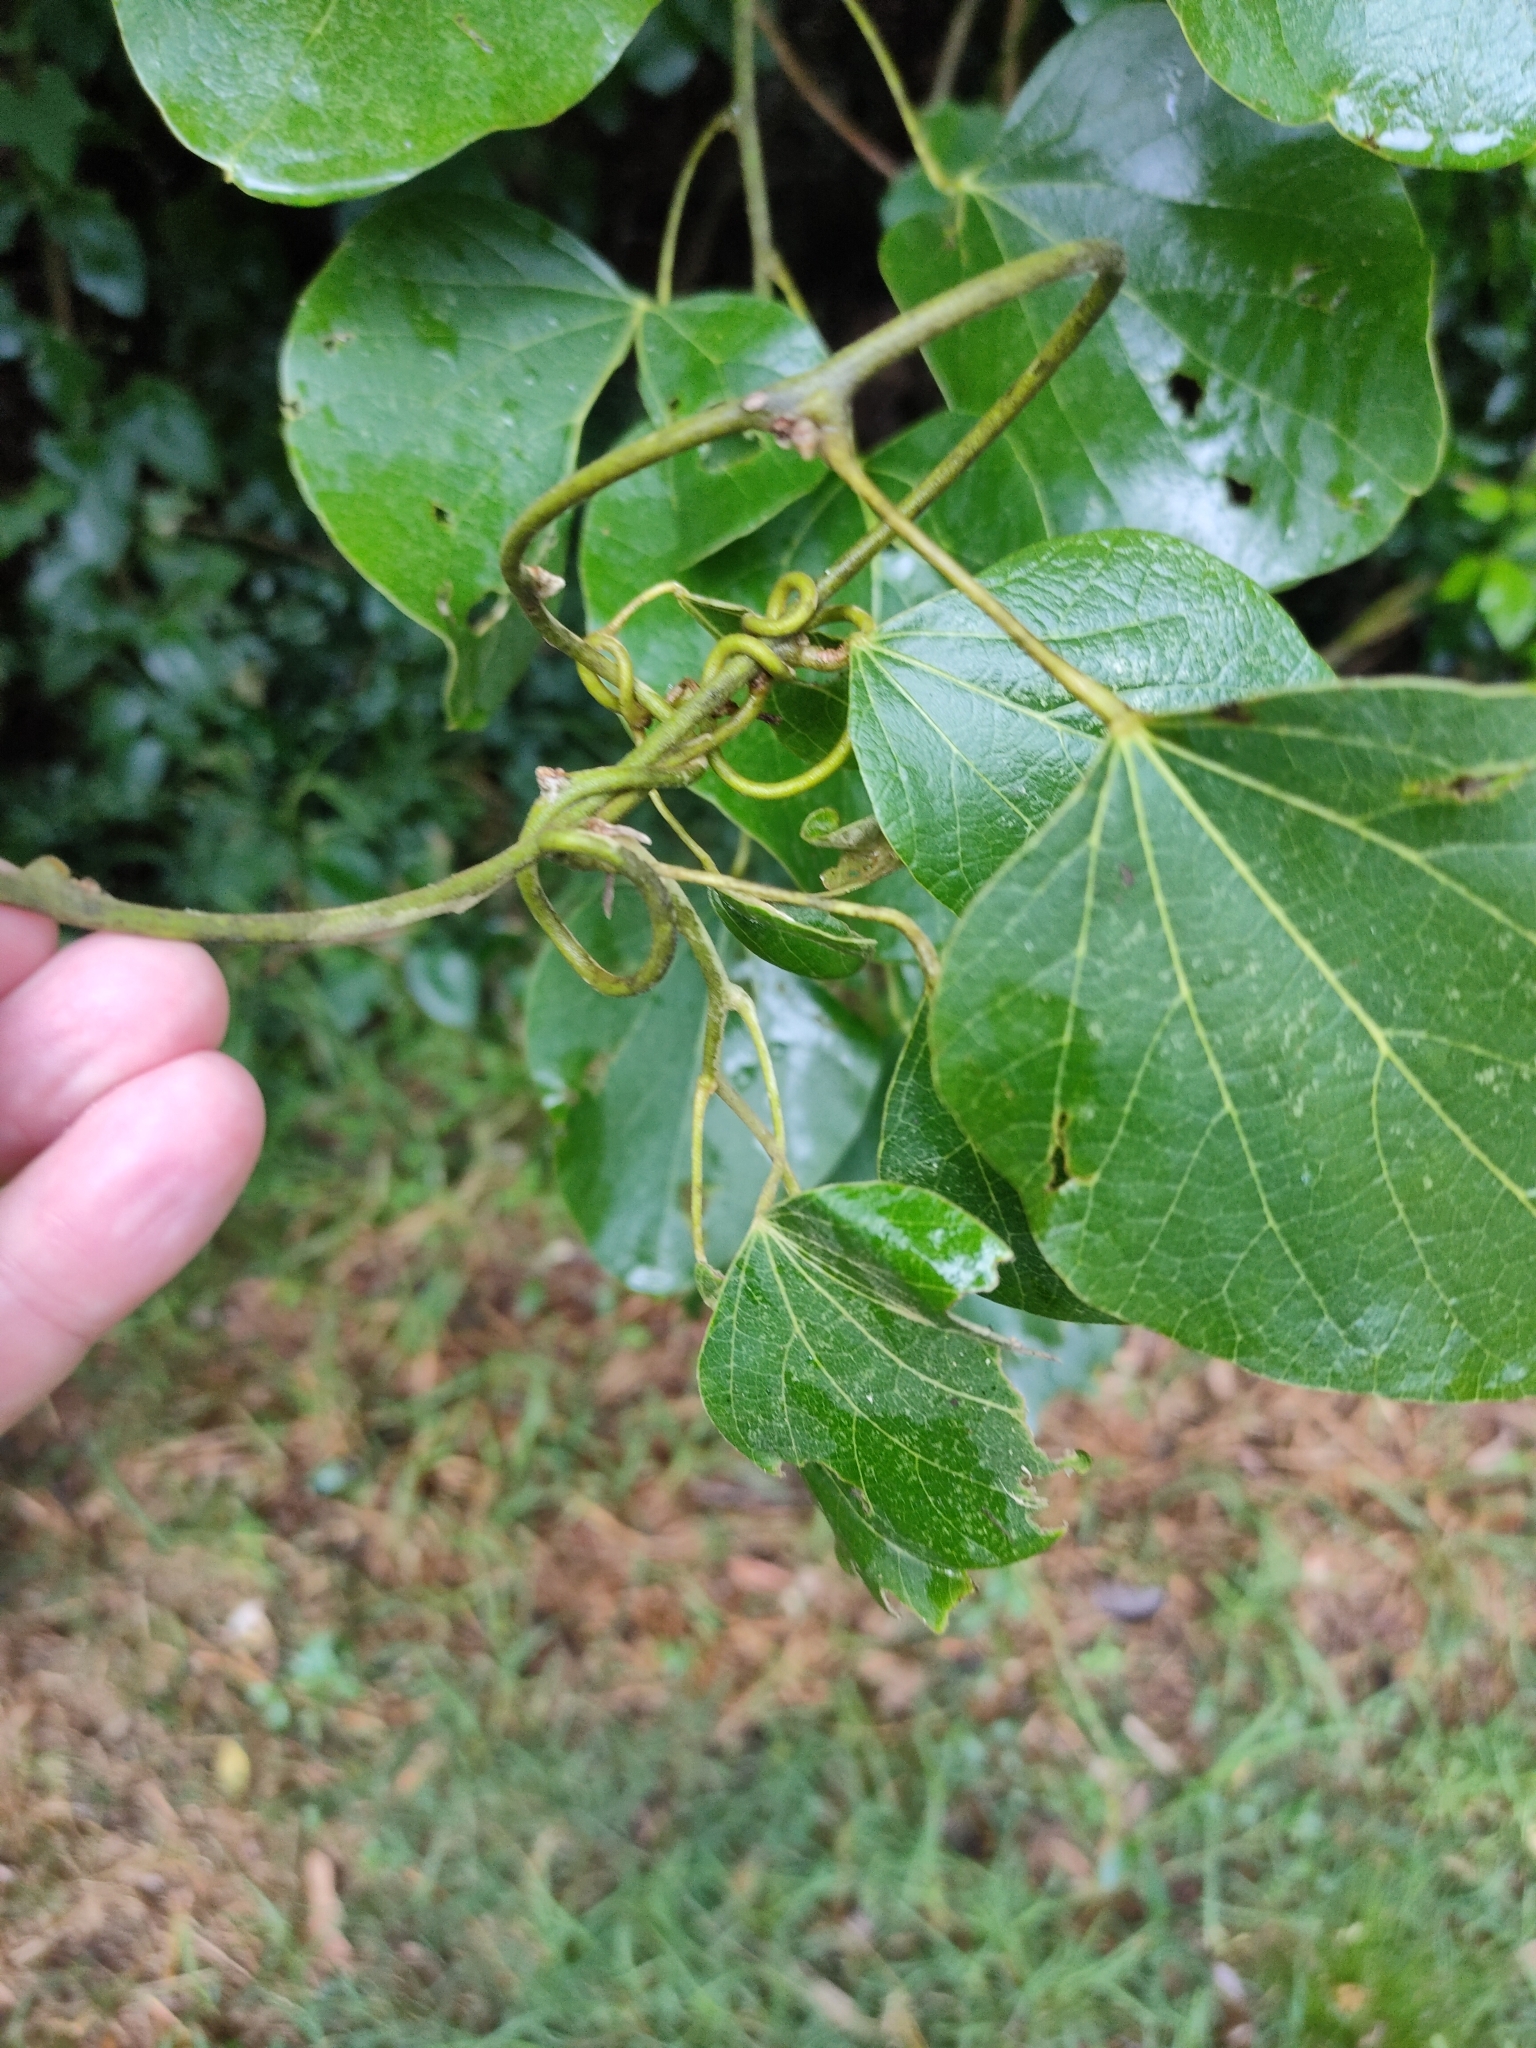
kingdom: Plantae
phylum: Tracheophyta
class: Magnoliopsida
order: Ranunculales
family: Menispermaceae
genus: Legnephora
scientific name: Legnephora moorei
